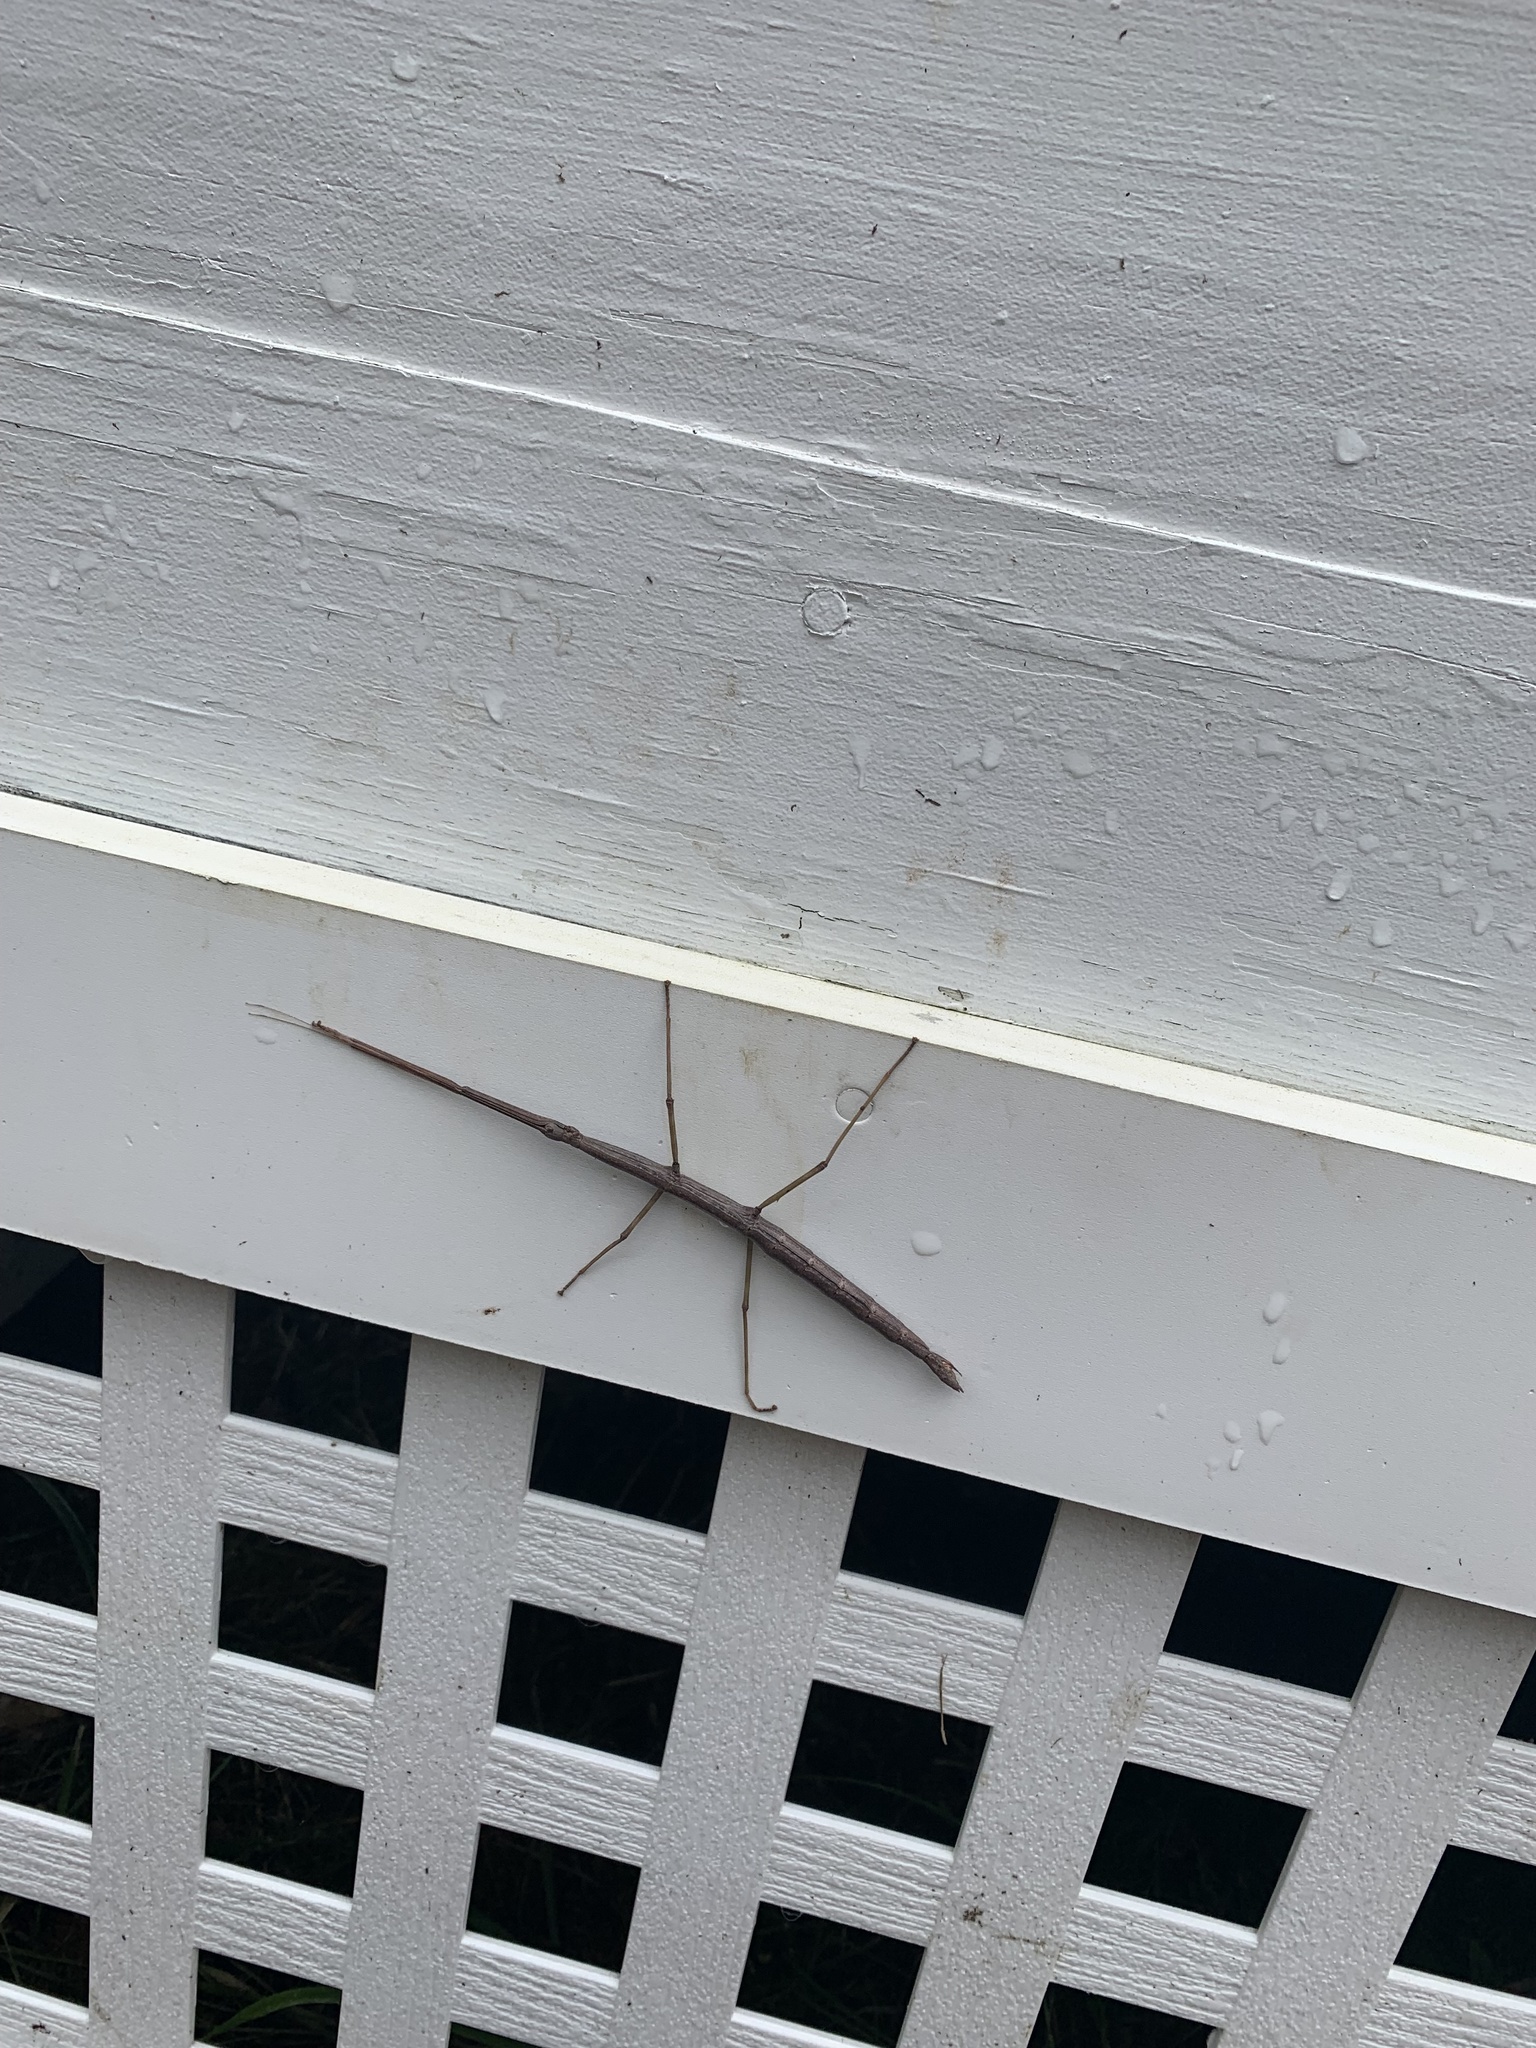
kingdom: Animalia
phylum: Arthropoda
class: Insecta
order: Phasmida
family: Diapheromeridae
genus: Diapheromera
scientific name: Diapheromera femorata
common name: Common american walkingstick
